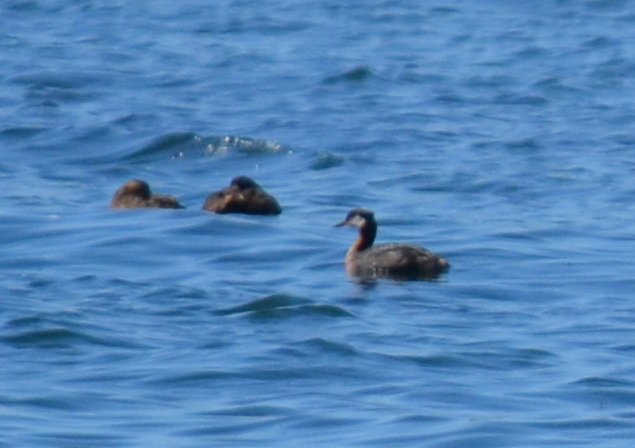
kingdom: Animalia
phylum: Chordata
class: Aves
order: Podicipediformes
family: Podicipedidae
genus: Podiceps
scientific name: Podiceps grisegena
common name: Red-necked grebe
